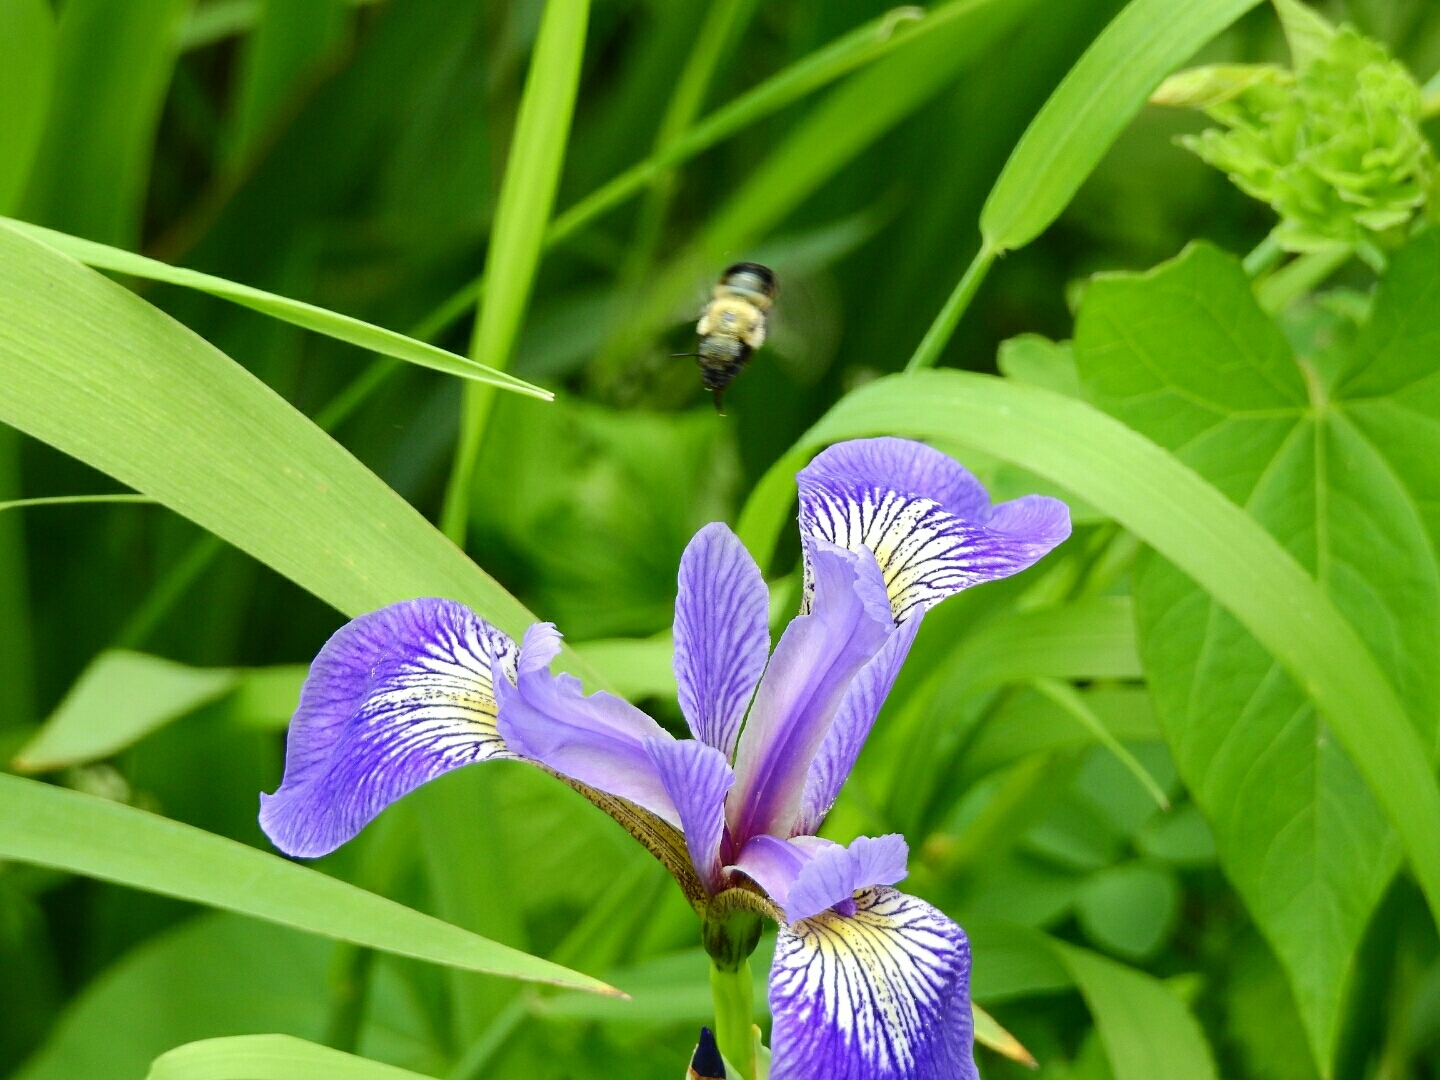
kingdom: Plantae
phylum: Tracheophyta
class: Liliopsida
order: Asparagales
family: Iridaceae
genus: Iris
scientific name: Iris versicolor
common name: Purple iris
